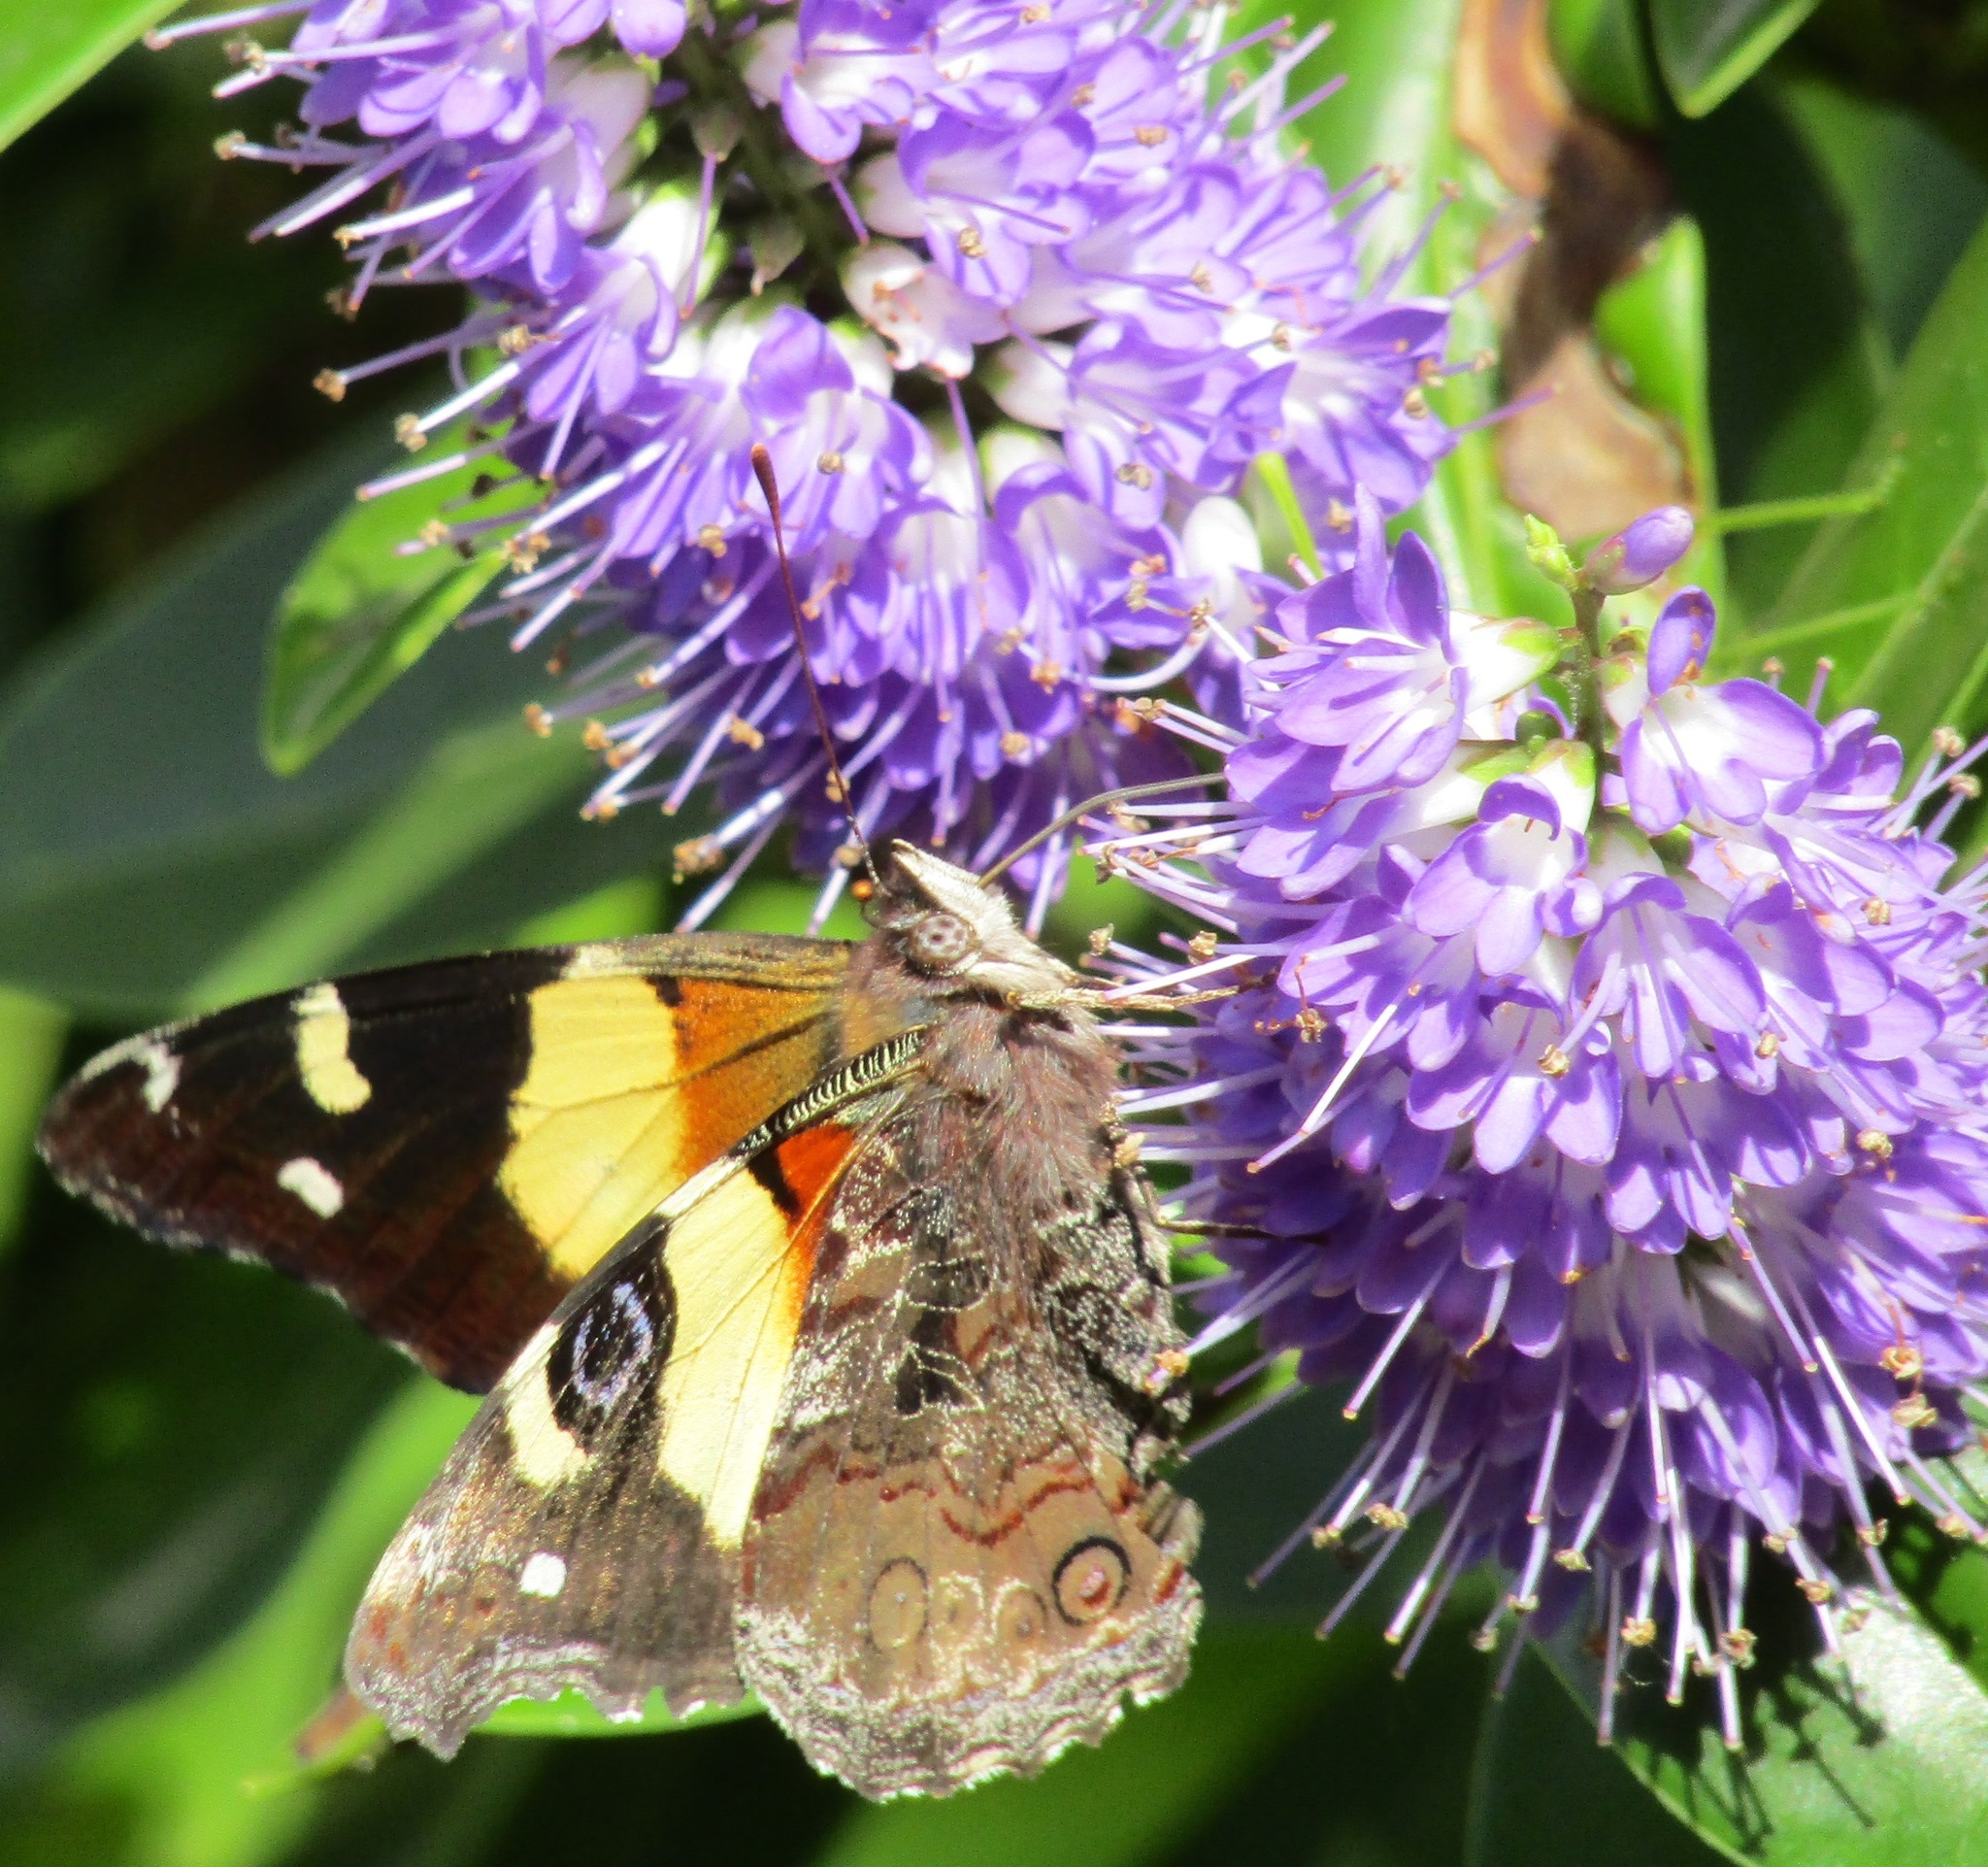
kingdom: Animalia
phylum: Arthropoda
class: Insecta
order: Lepidoptera
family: Nymphalidae
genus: Vanessa
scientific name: Vanessa itea
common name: Yellow admiral
